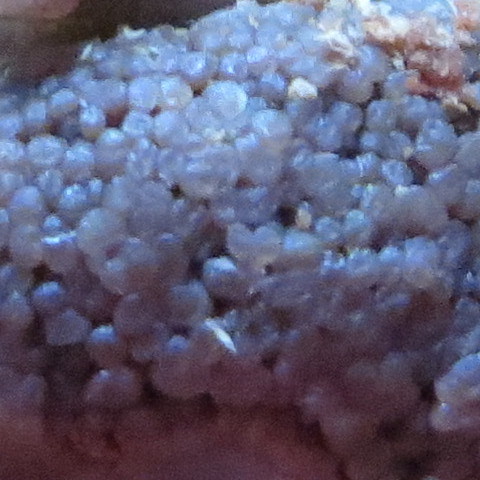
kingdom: Protozoa
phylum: Mycetozoa
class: Myxomycetes
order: Cribrariales
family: Tubiferaceae
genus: Tubifera
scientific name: Tubifera ferruginosa
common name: Red raspberry slime mold
